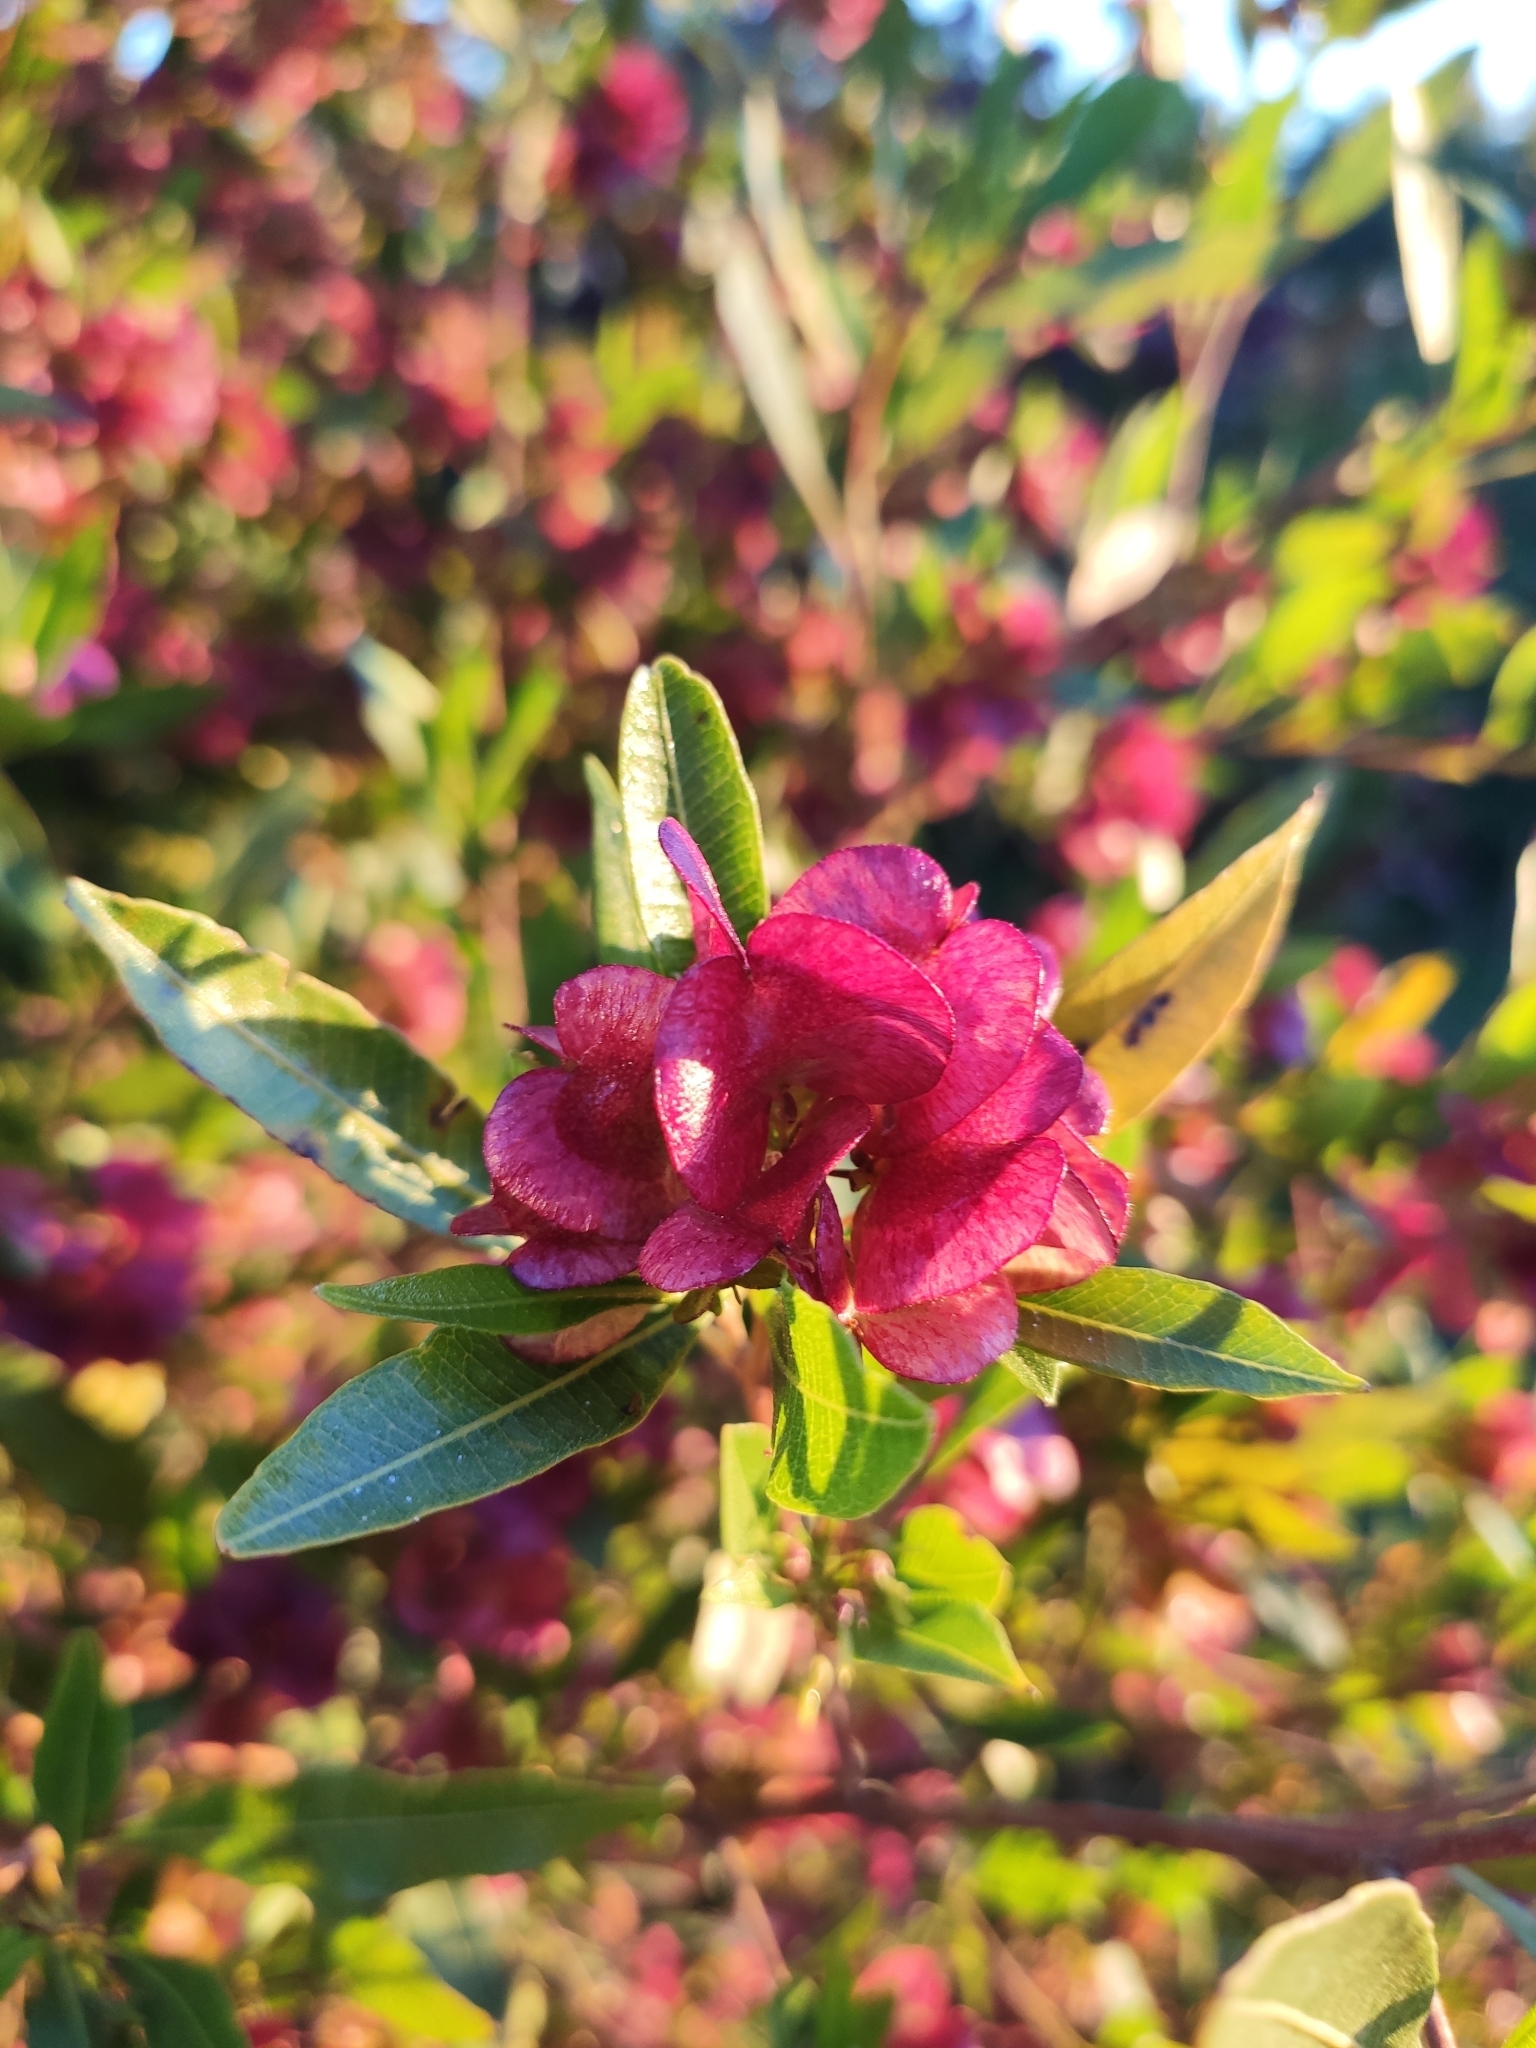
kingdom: Plantae
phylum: Tracheophyta
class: Magnoliopsida
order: Sapindales
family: Sapindaceae
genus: Dodonaea
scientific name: Dodonaea viscosa
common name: Hopbush
